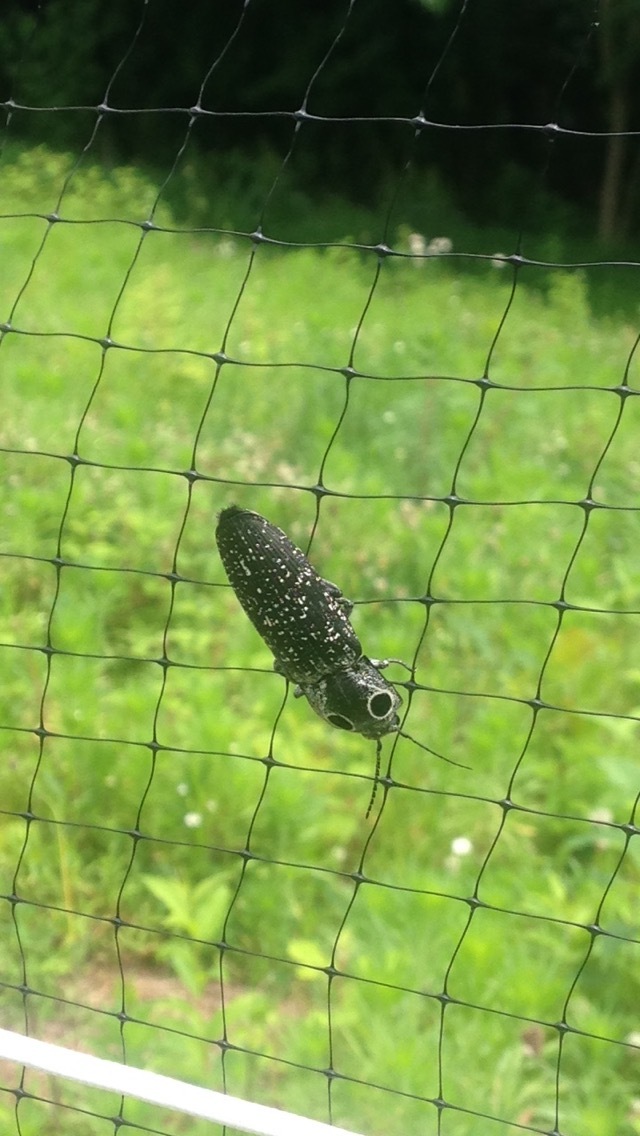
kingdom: Animalia
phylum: Arthropoda
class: Insecta
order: Coleoptera
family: Elateridae
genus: Alaus
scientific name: Alaus oculatus
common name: Eastern eyed click beetle
